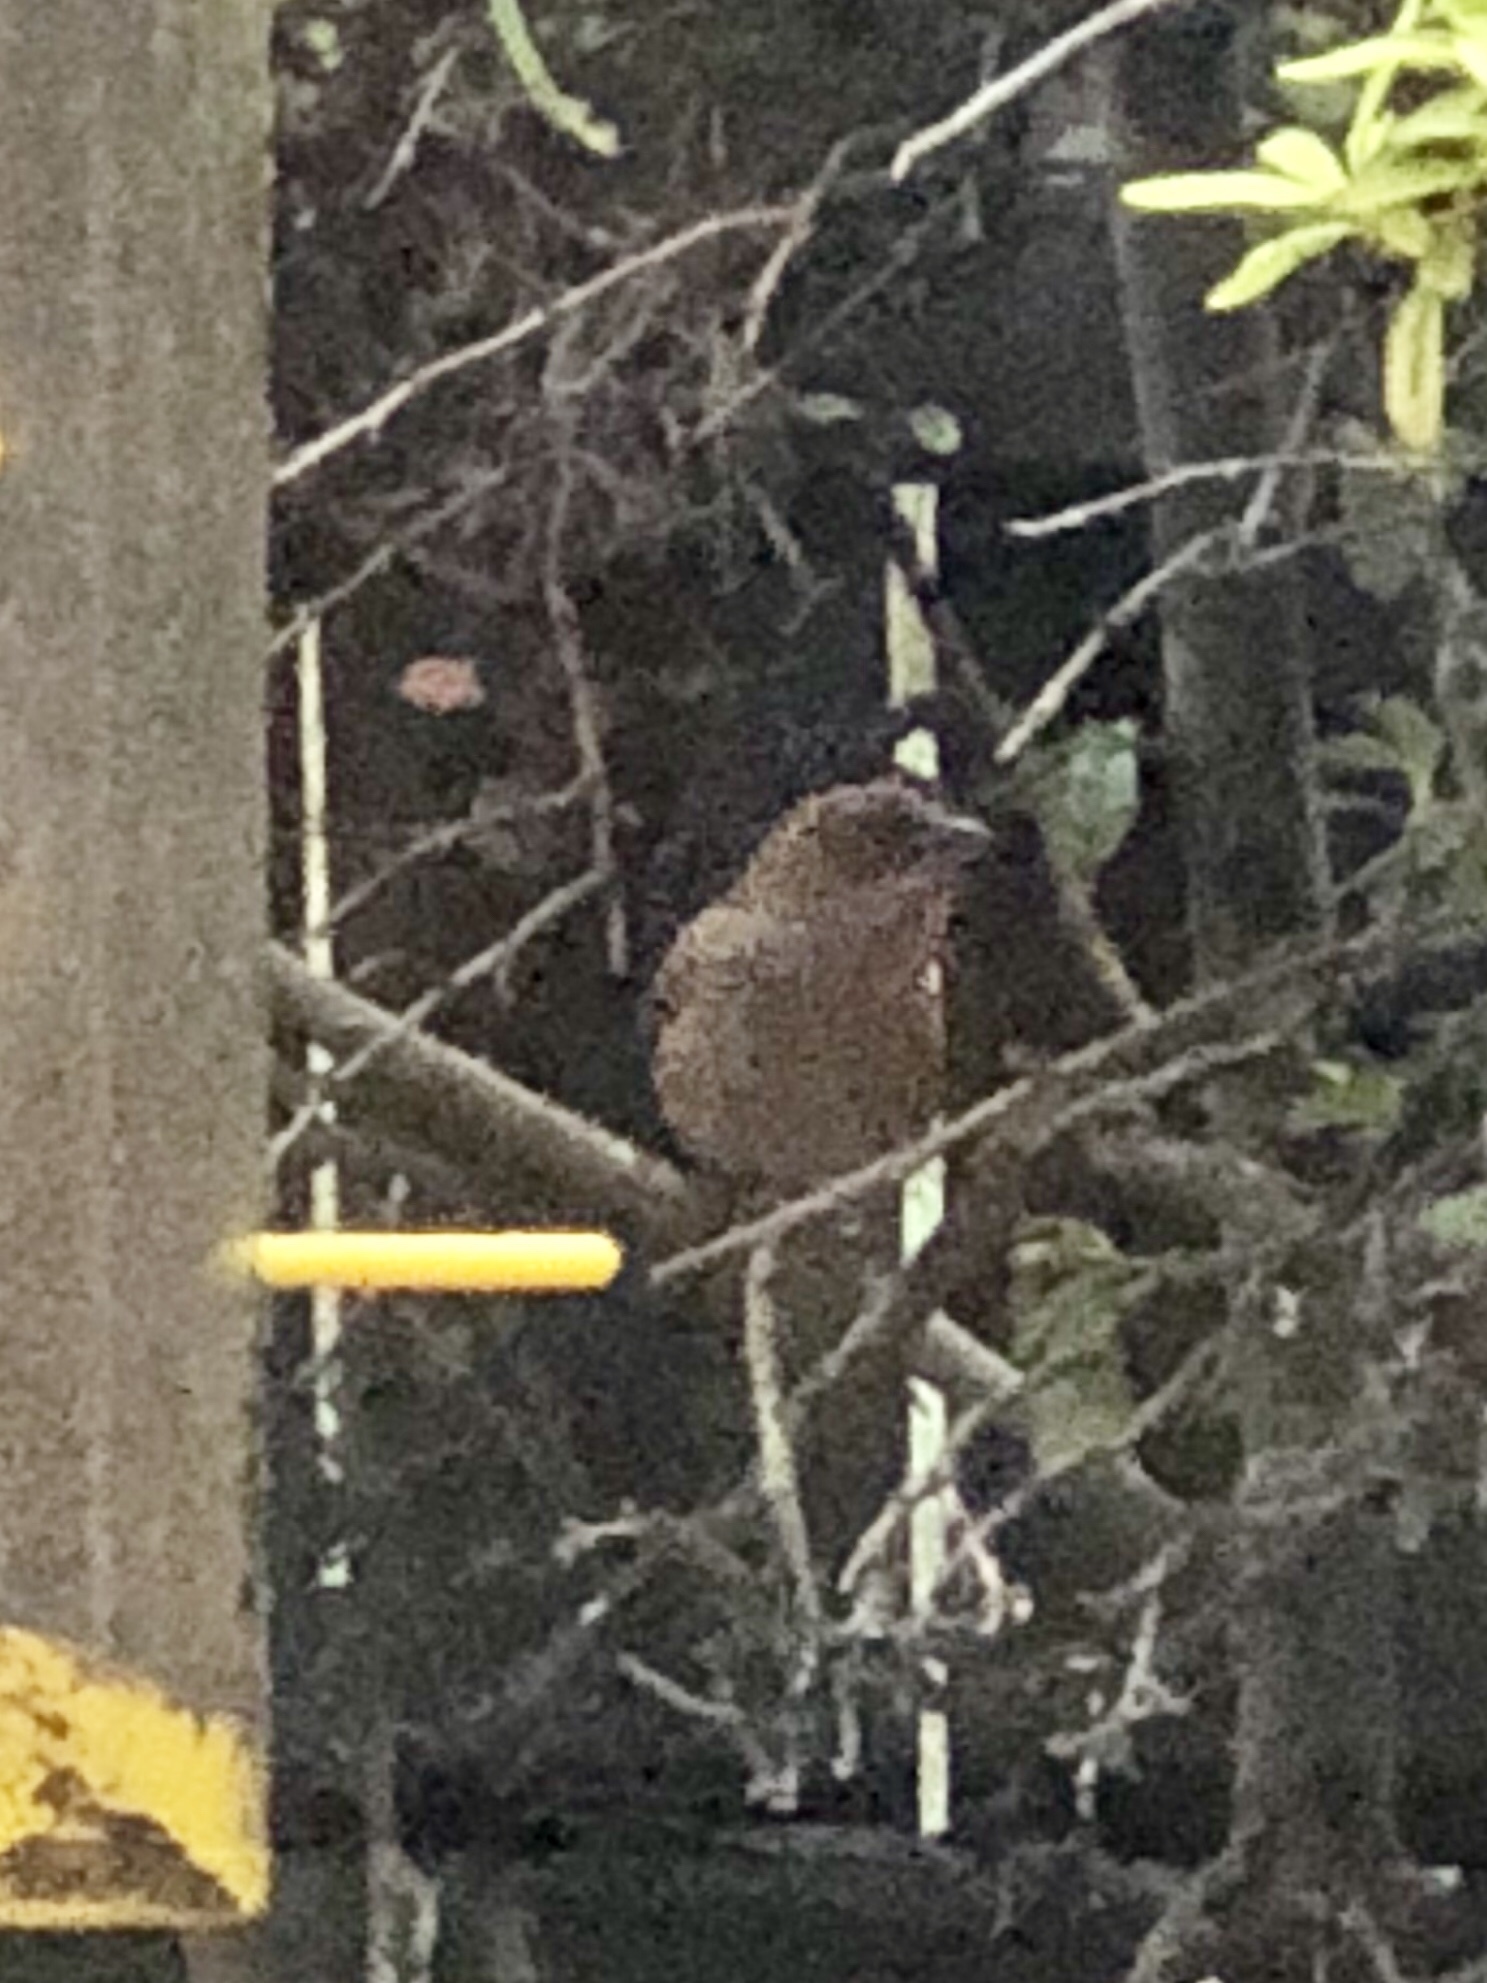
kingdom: Animalia
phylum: Chordata
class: Aves
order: Passeriformes
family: Fringillidae
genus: Haemorhous
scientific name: Haemorhous mexicanus
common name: House finch
